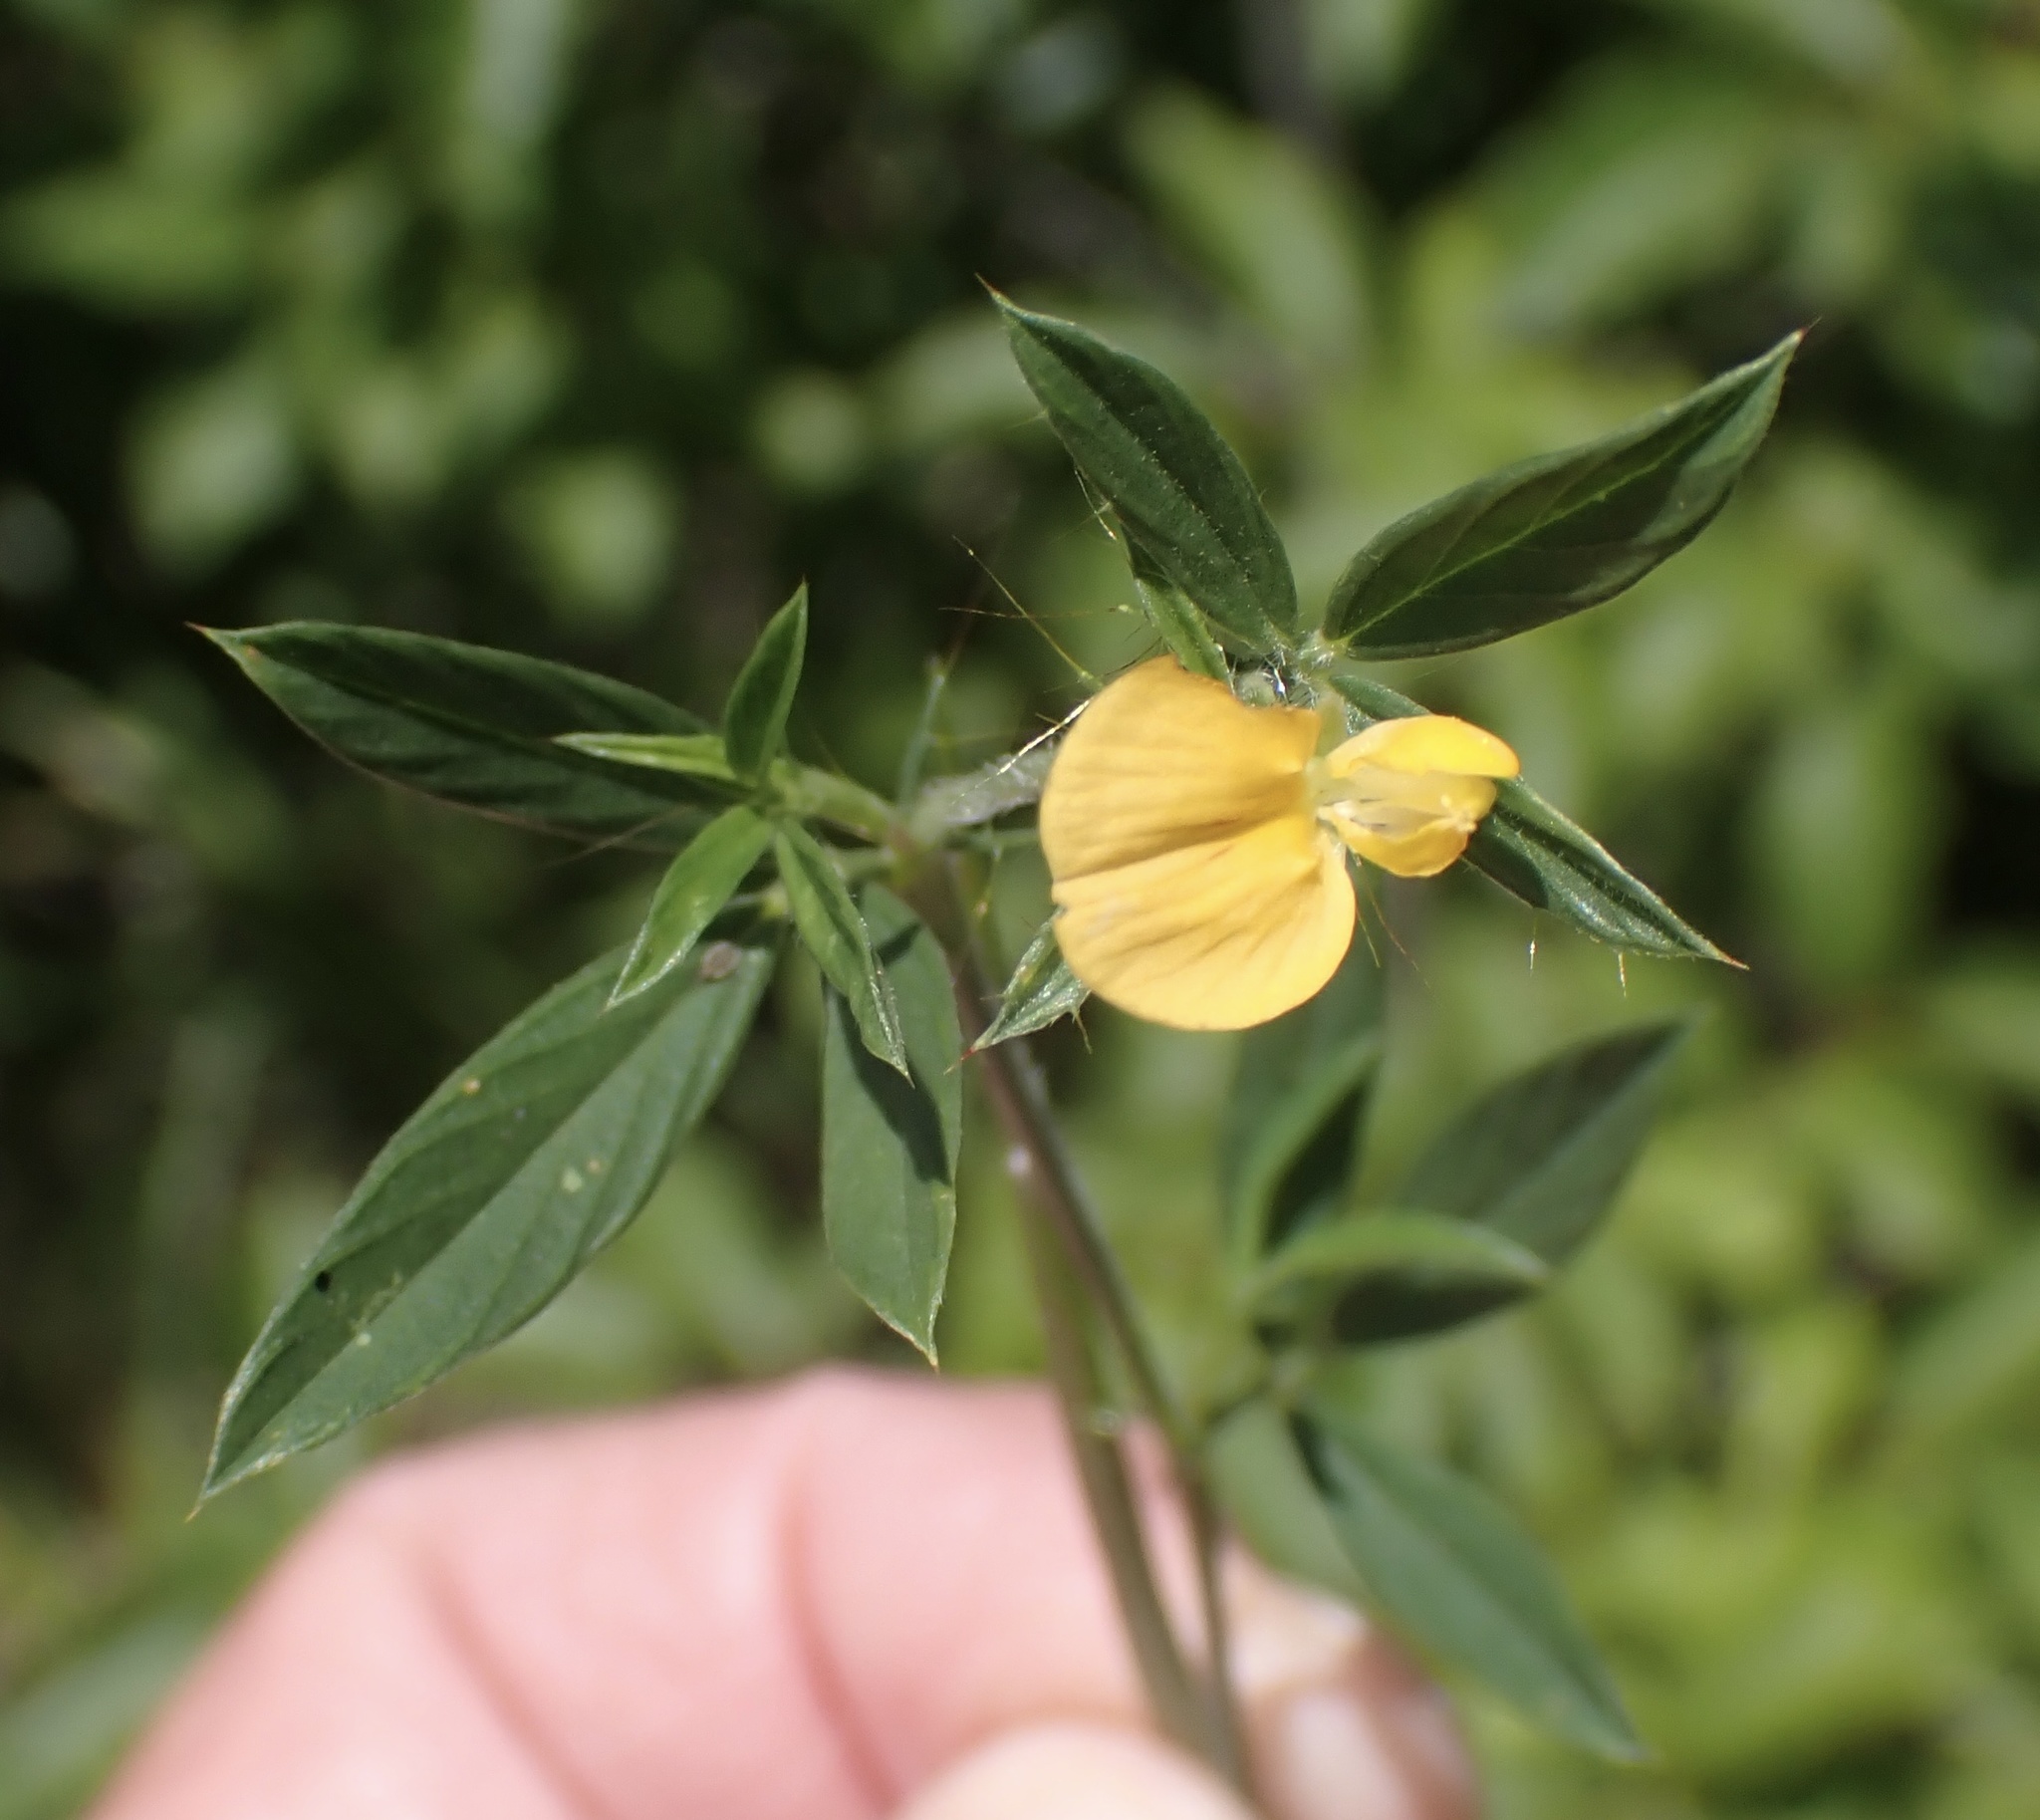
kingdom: Plantae
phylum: Tracheophyta
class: Magnoliopsida
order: Fabales
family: Fabaceae
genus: Stylosanthes
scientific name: Stylosanthes biflora
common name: Two-flower pencil-flower
